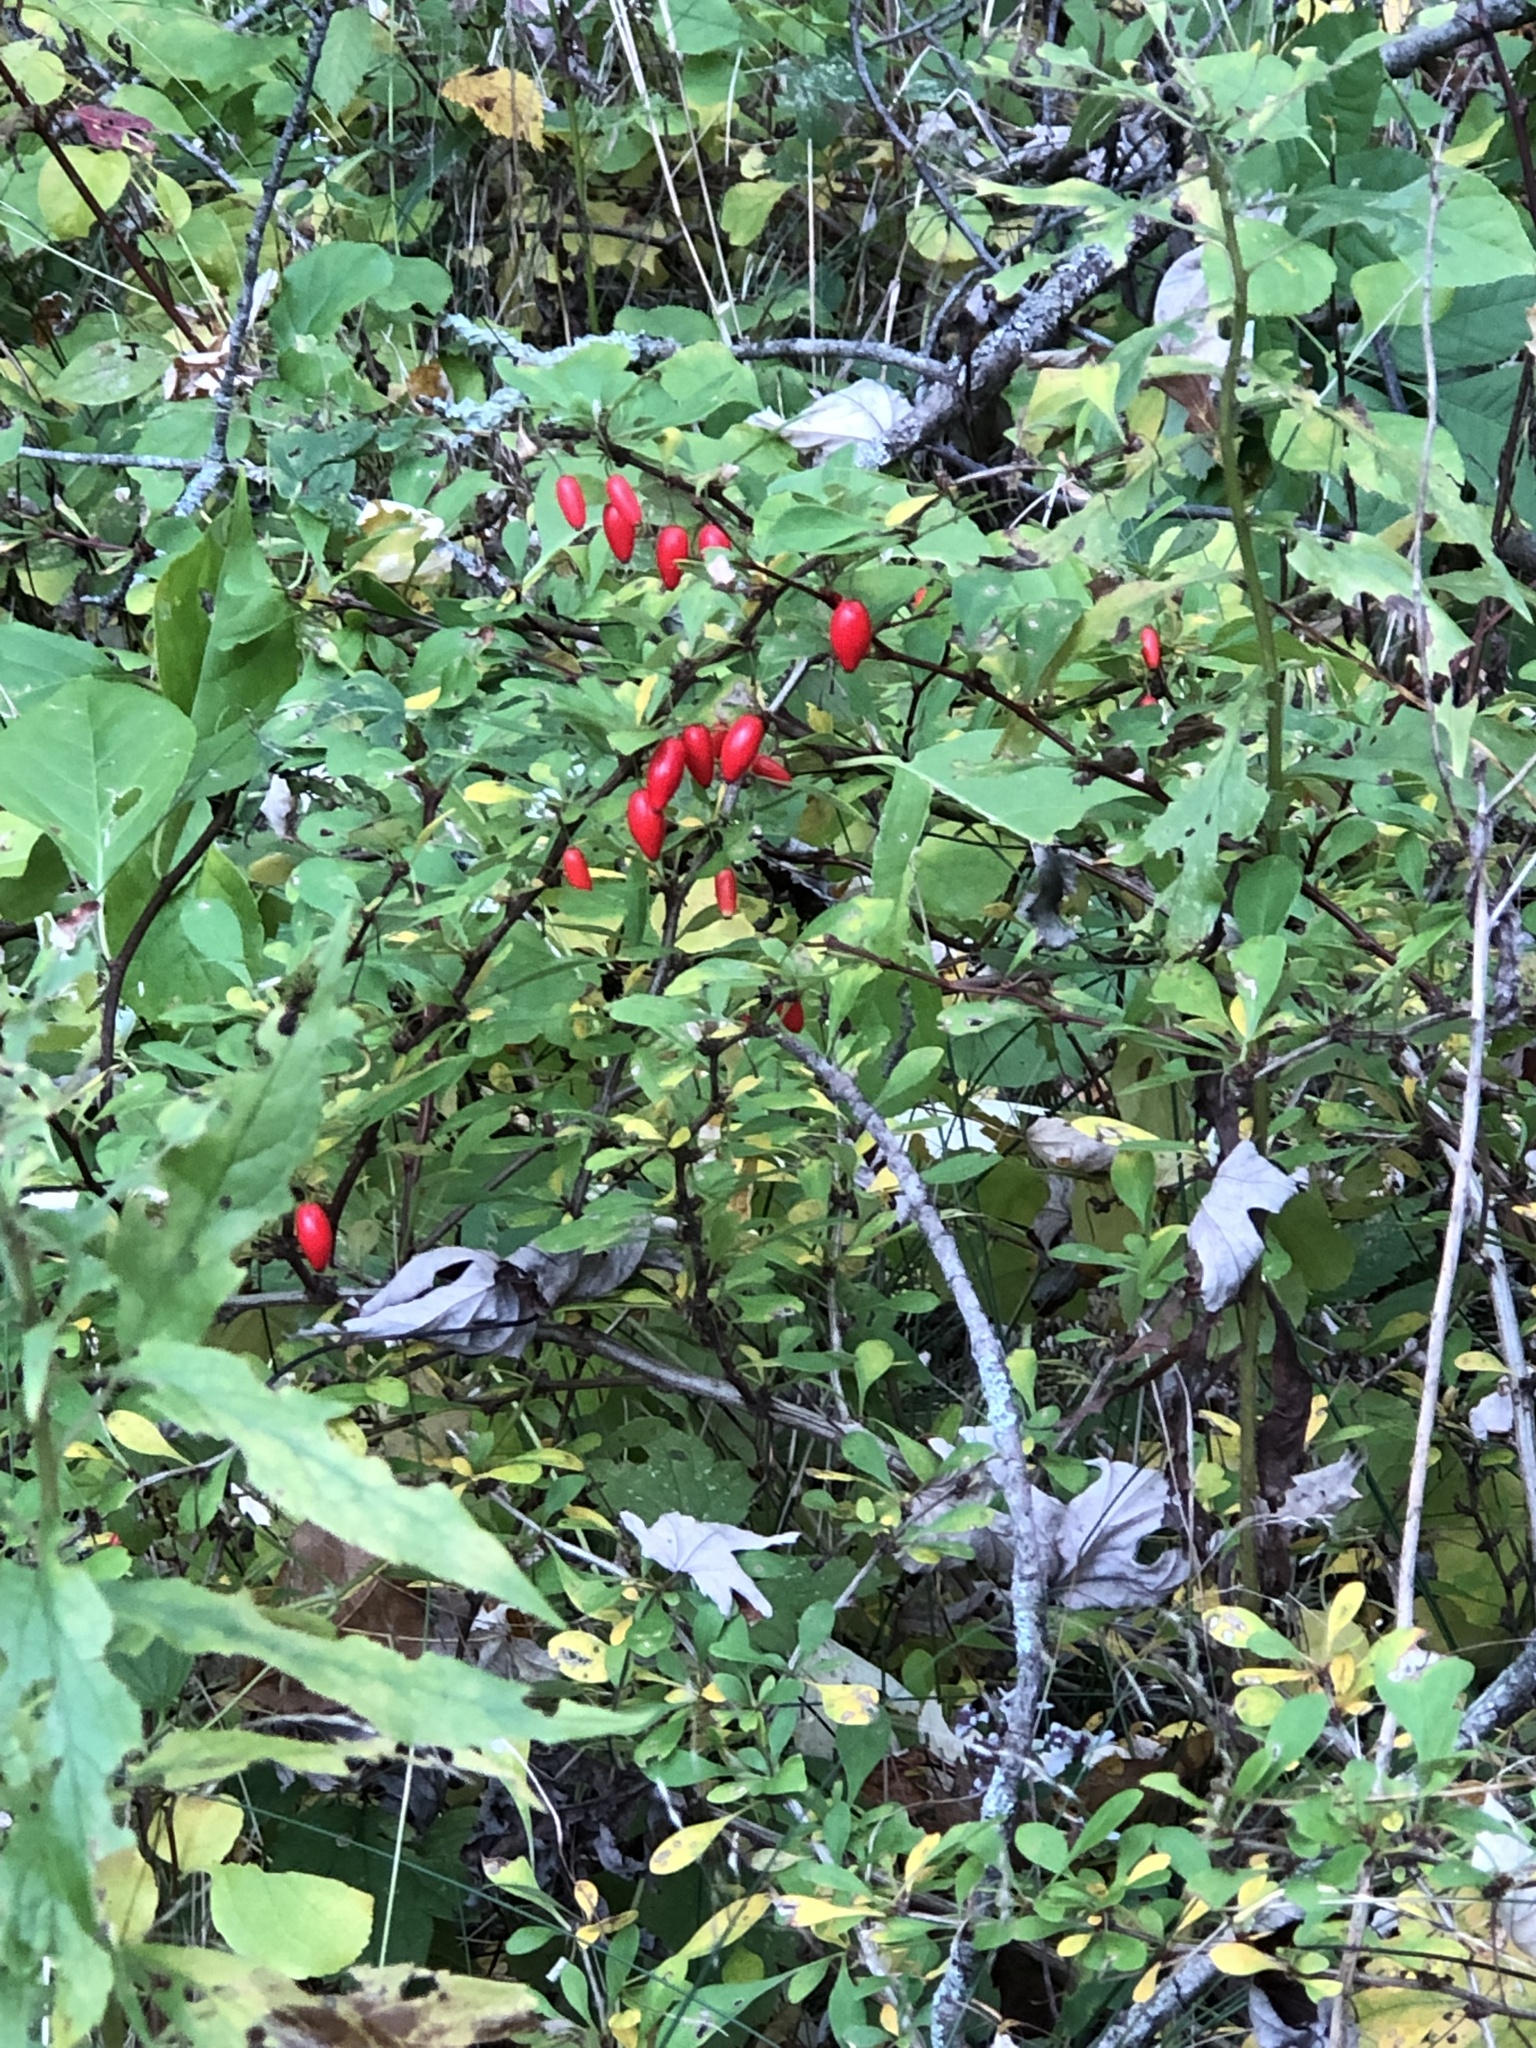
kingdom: Plantae
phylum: Tracheophyta
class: Magnoliopsida
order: Ranunculales
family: Berberidaceae
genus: Berberis
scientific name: Berberis thunbergii
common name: Japanese barberry
